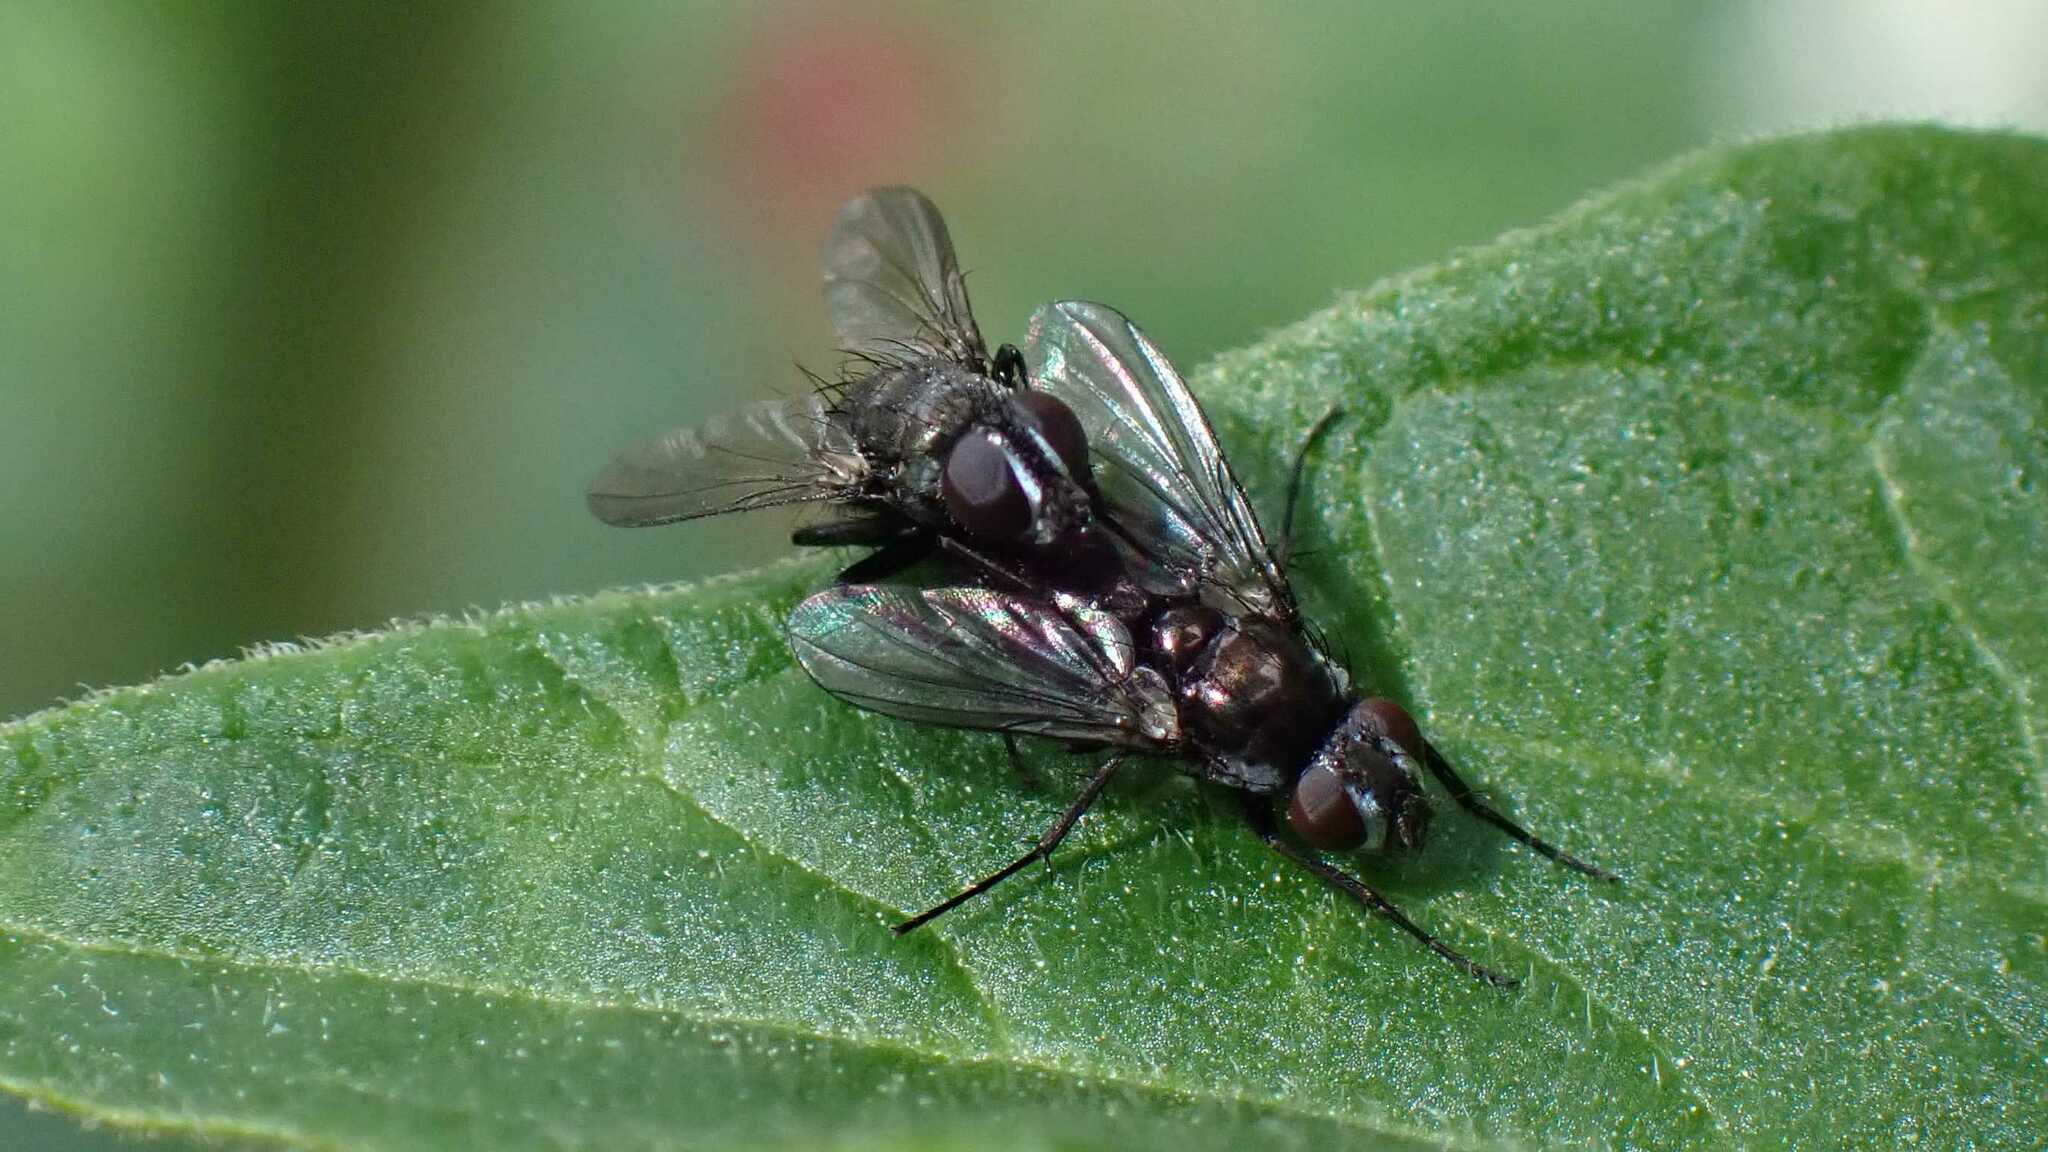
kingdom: Animalia
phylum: Arthropoda
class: Insecta
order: Diptera
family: Calliphoridae
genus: Rhinophora
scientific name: Rhinophora lepida
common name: Pouting woodlouse-fly
